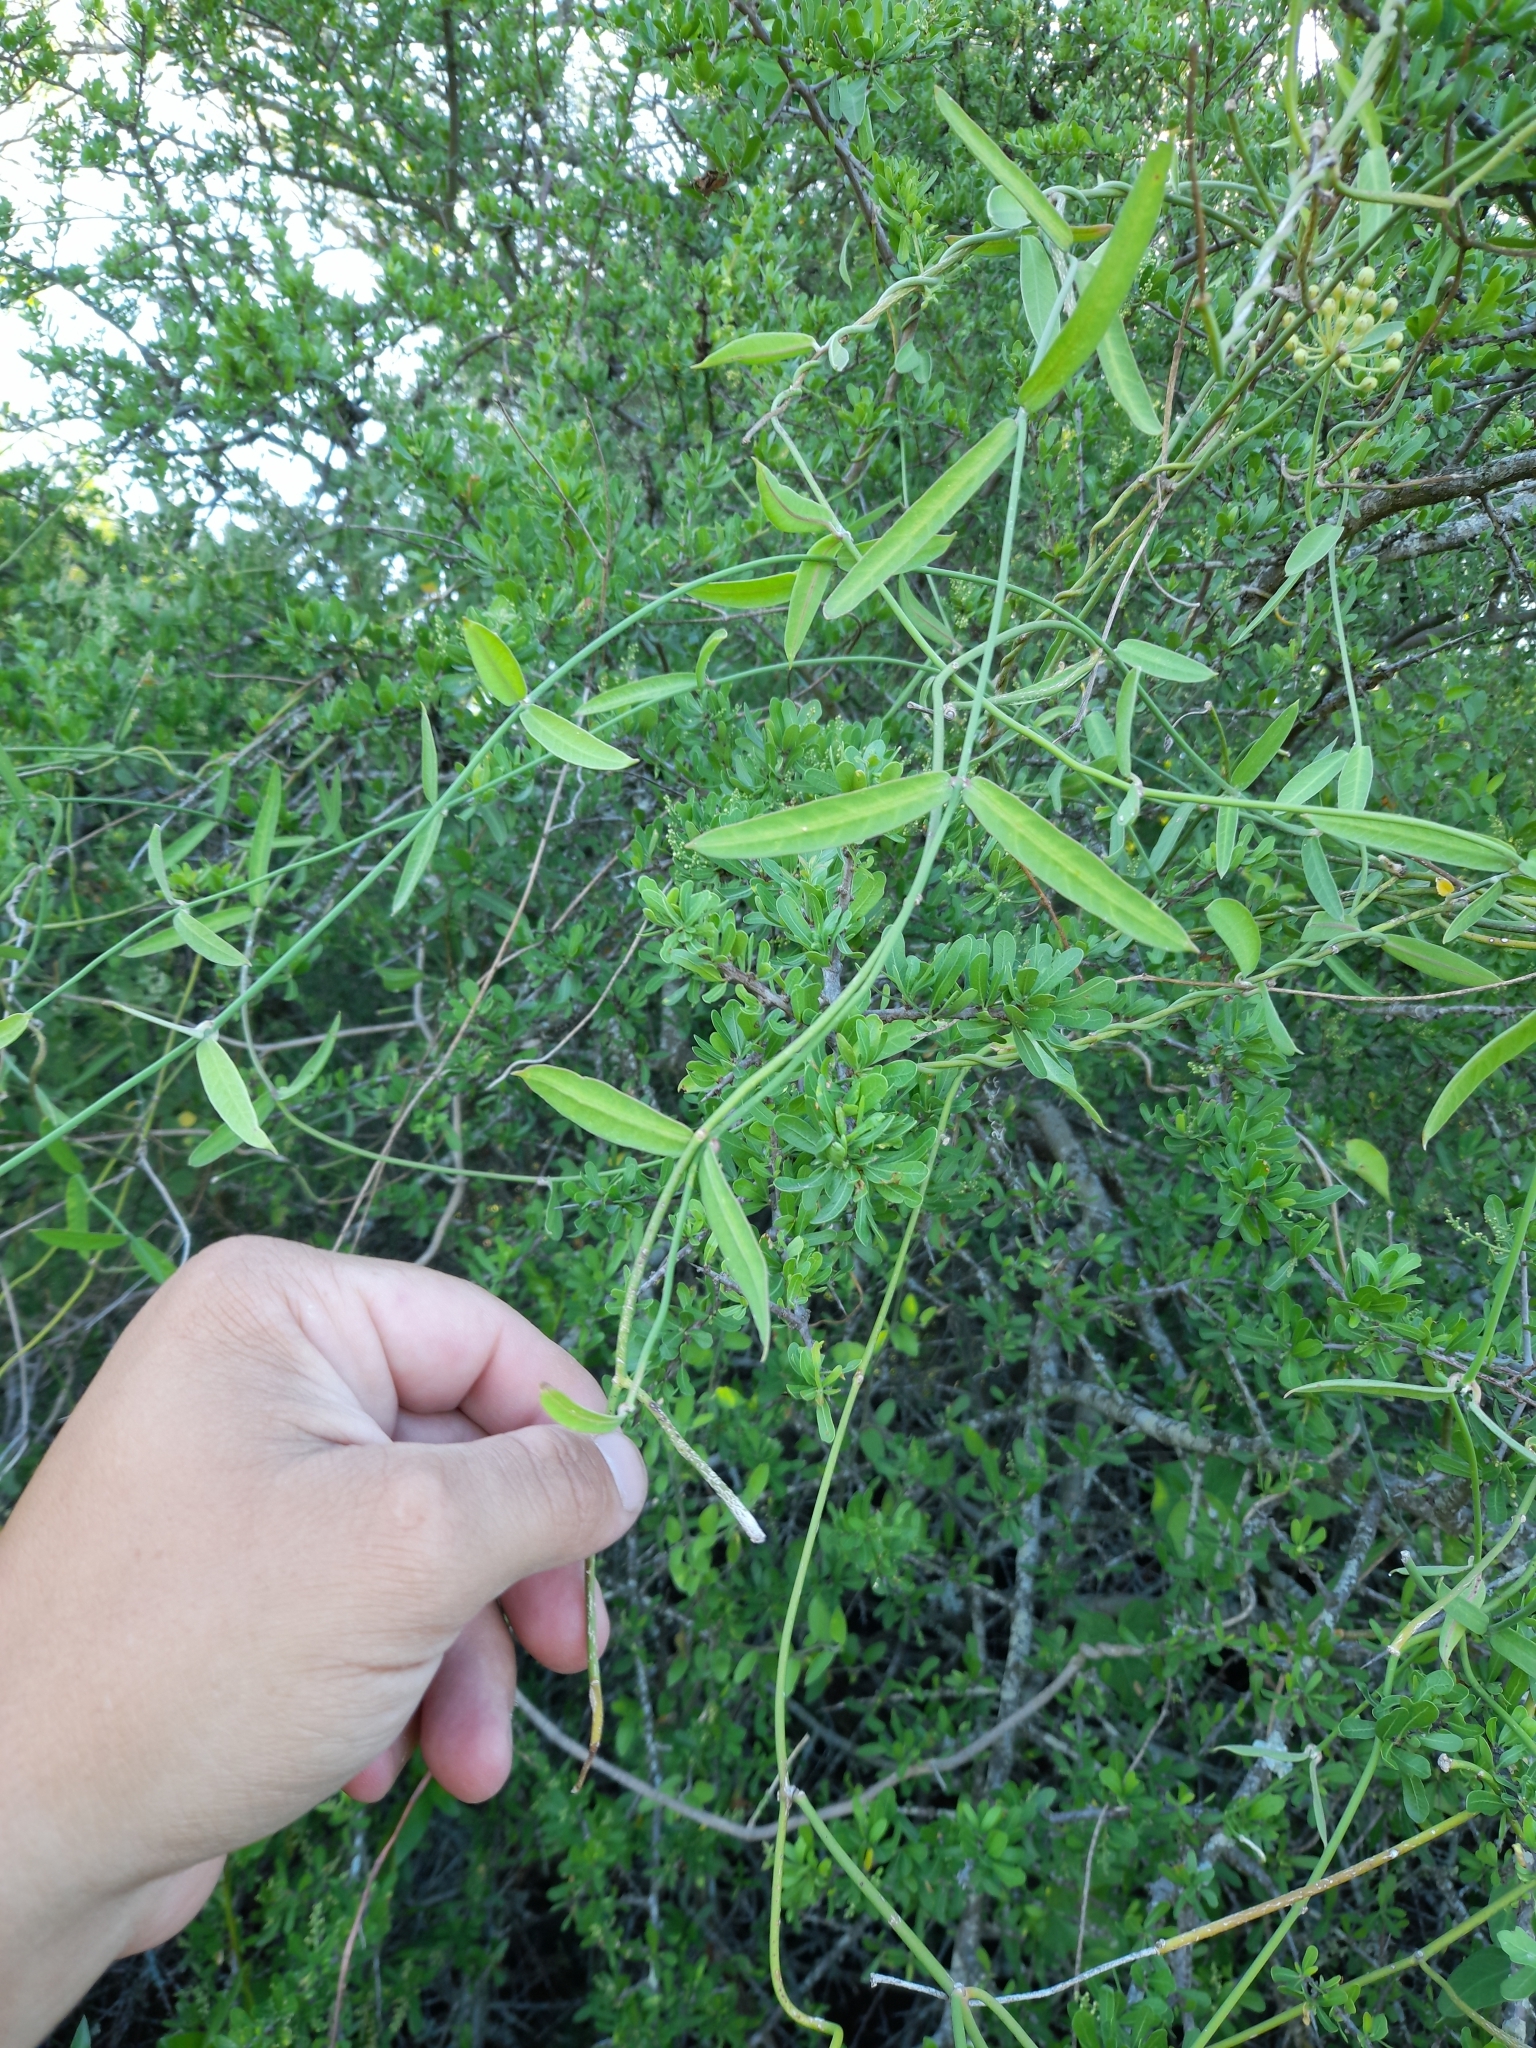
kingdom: Plantae
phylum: Tracheophyta
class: Magnoliopsida
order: Gentianales
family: Apocynaceae
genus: Funastrum
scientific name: Funastrum clausum
